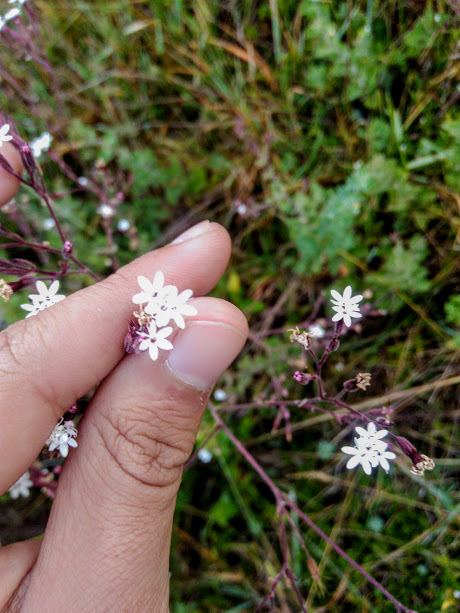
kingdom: Plantae
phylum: Tracheophyta
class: Magnoliopsida
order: Asterales
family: Asteraceae
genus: Stevia
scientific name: Stevia elatior
